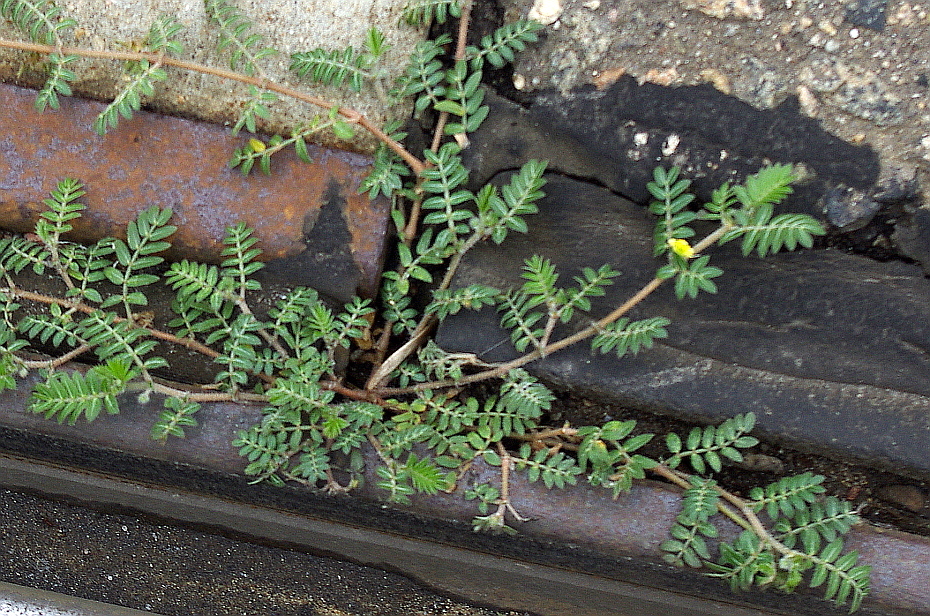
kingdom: Plantae
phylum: Tracheophyta
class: Magnoliopsida
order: Zygophyllales
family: Zygophyllaceae
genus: Tribulus
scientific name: Tribulus terrestris
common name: Puncturevine
